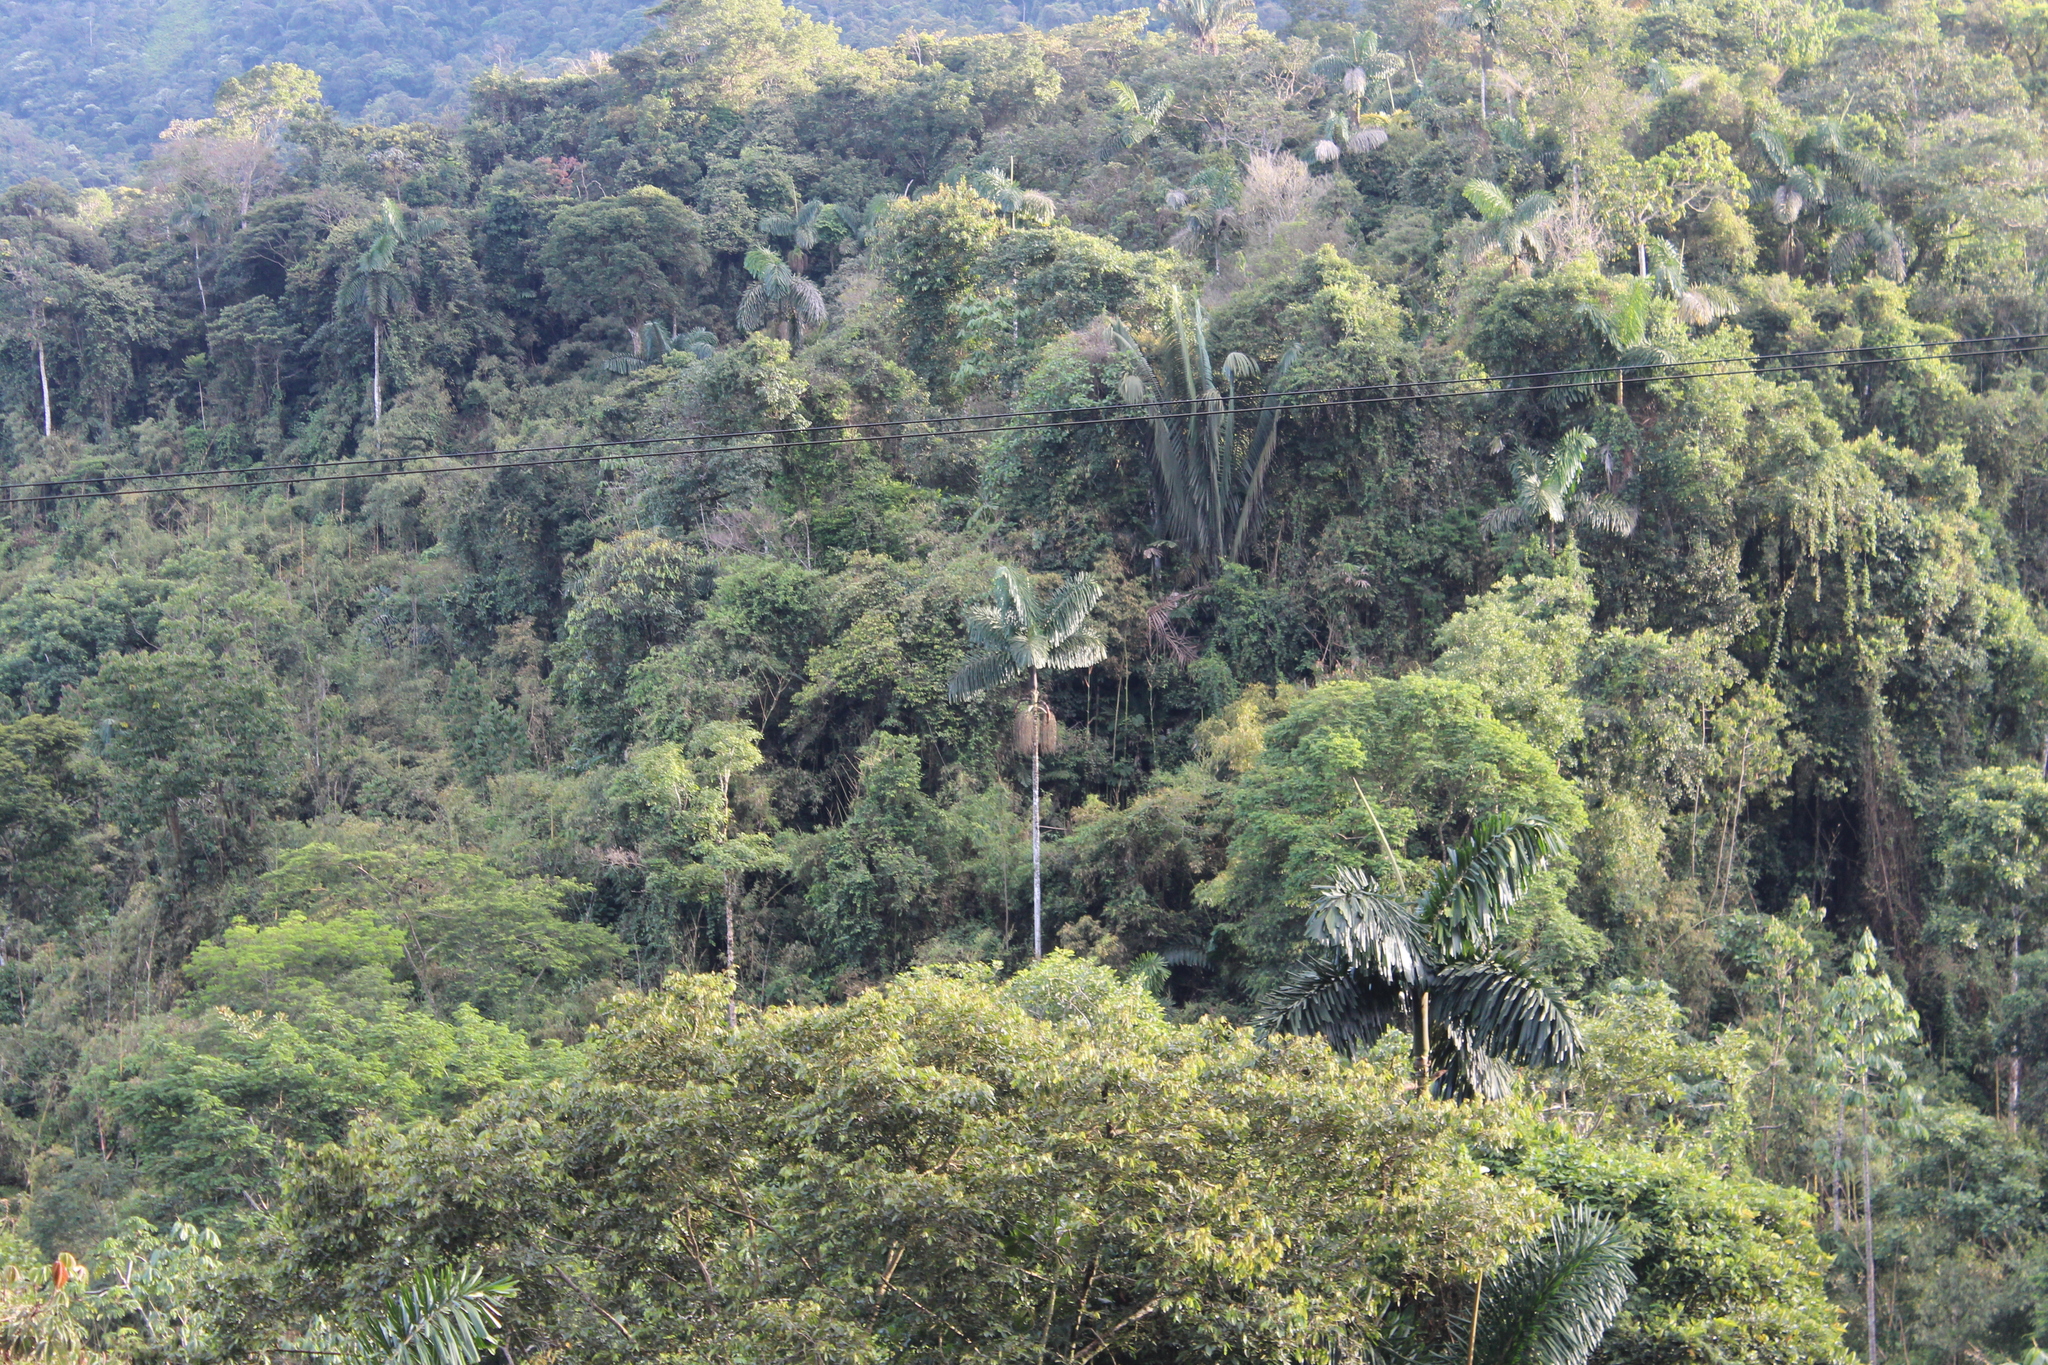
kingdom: Plantae
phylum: Tracheophyta
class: Liliopsida
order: Arecales
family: Arecaceae
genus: Iriartea
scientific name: Iriartea deltoidea
